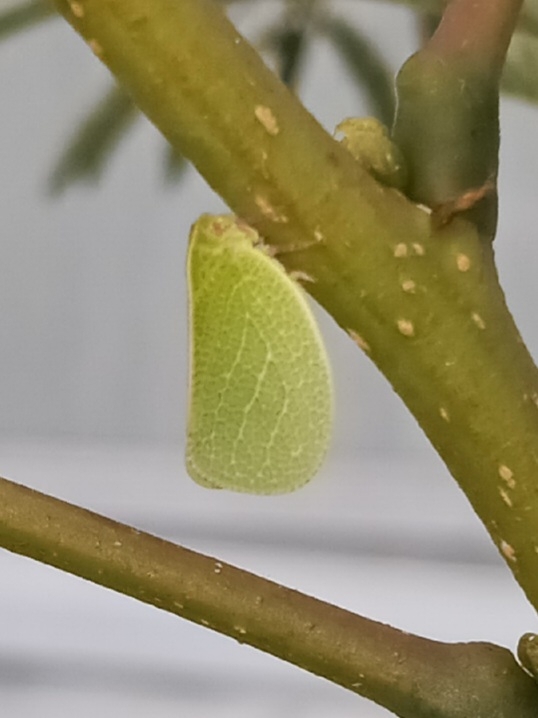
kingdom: Animalia
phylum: Arthropoda
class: Insecta
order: Hemiptera
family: Acanaloniidae
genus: Acanalonia
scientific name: Acanalonia servillei
